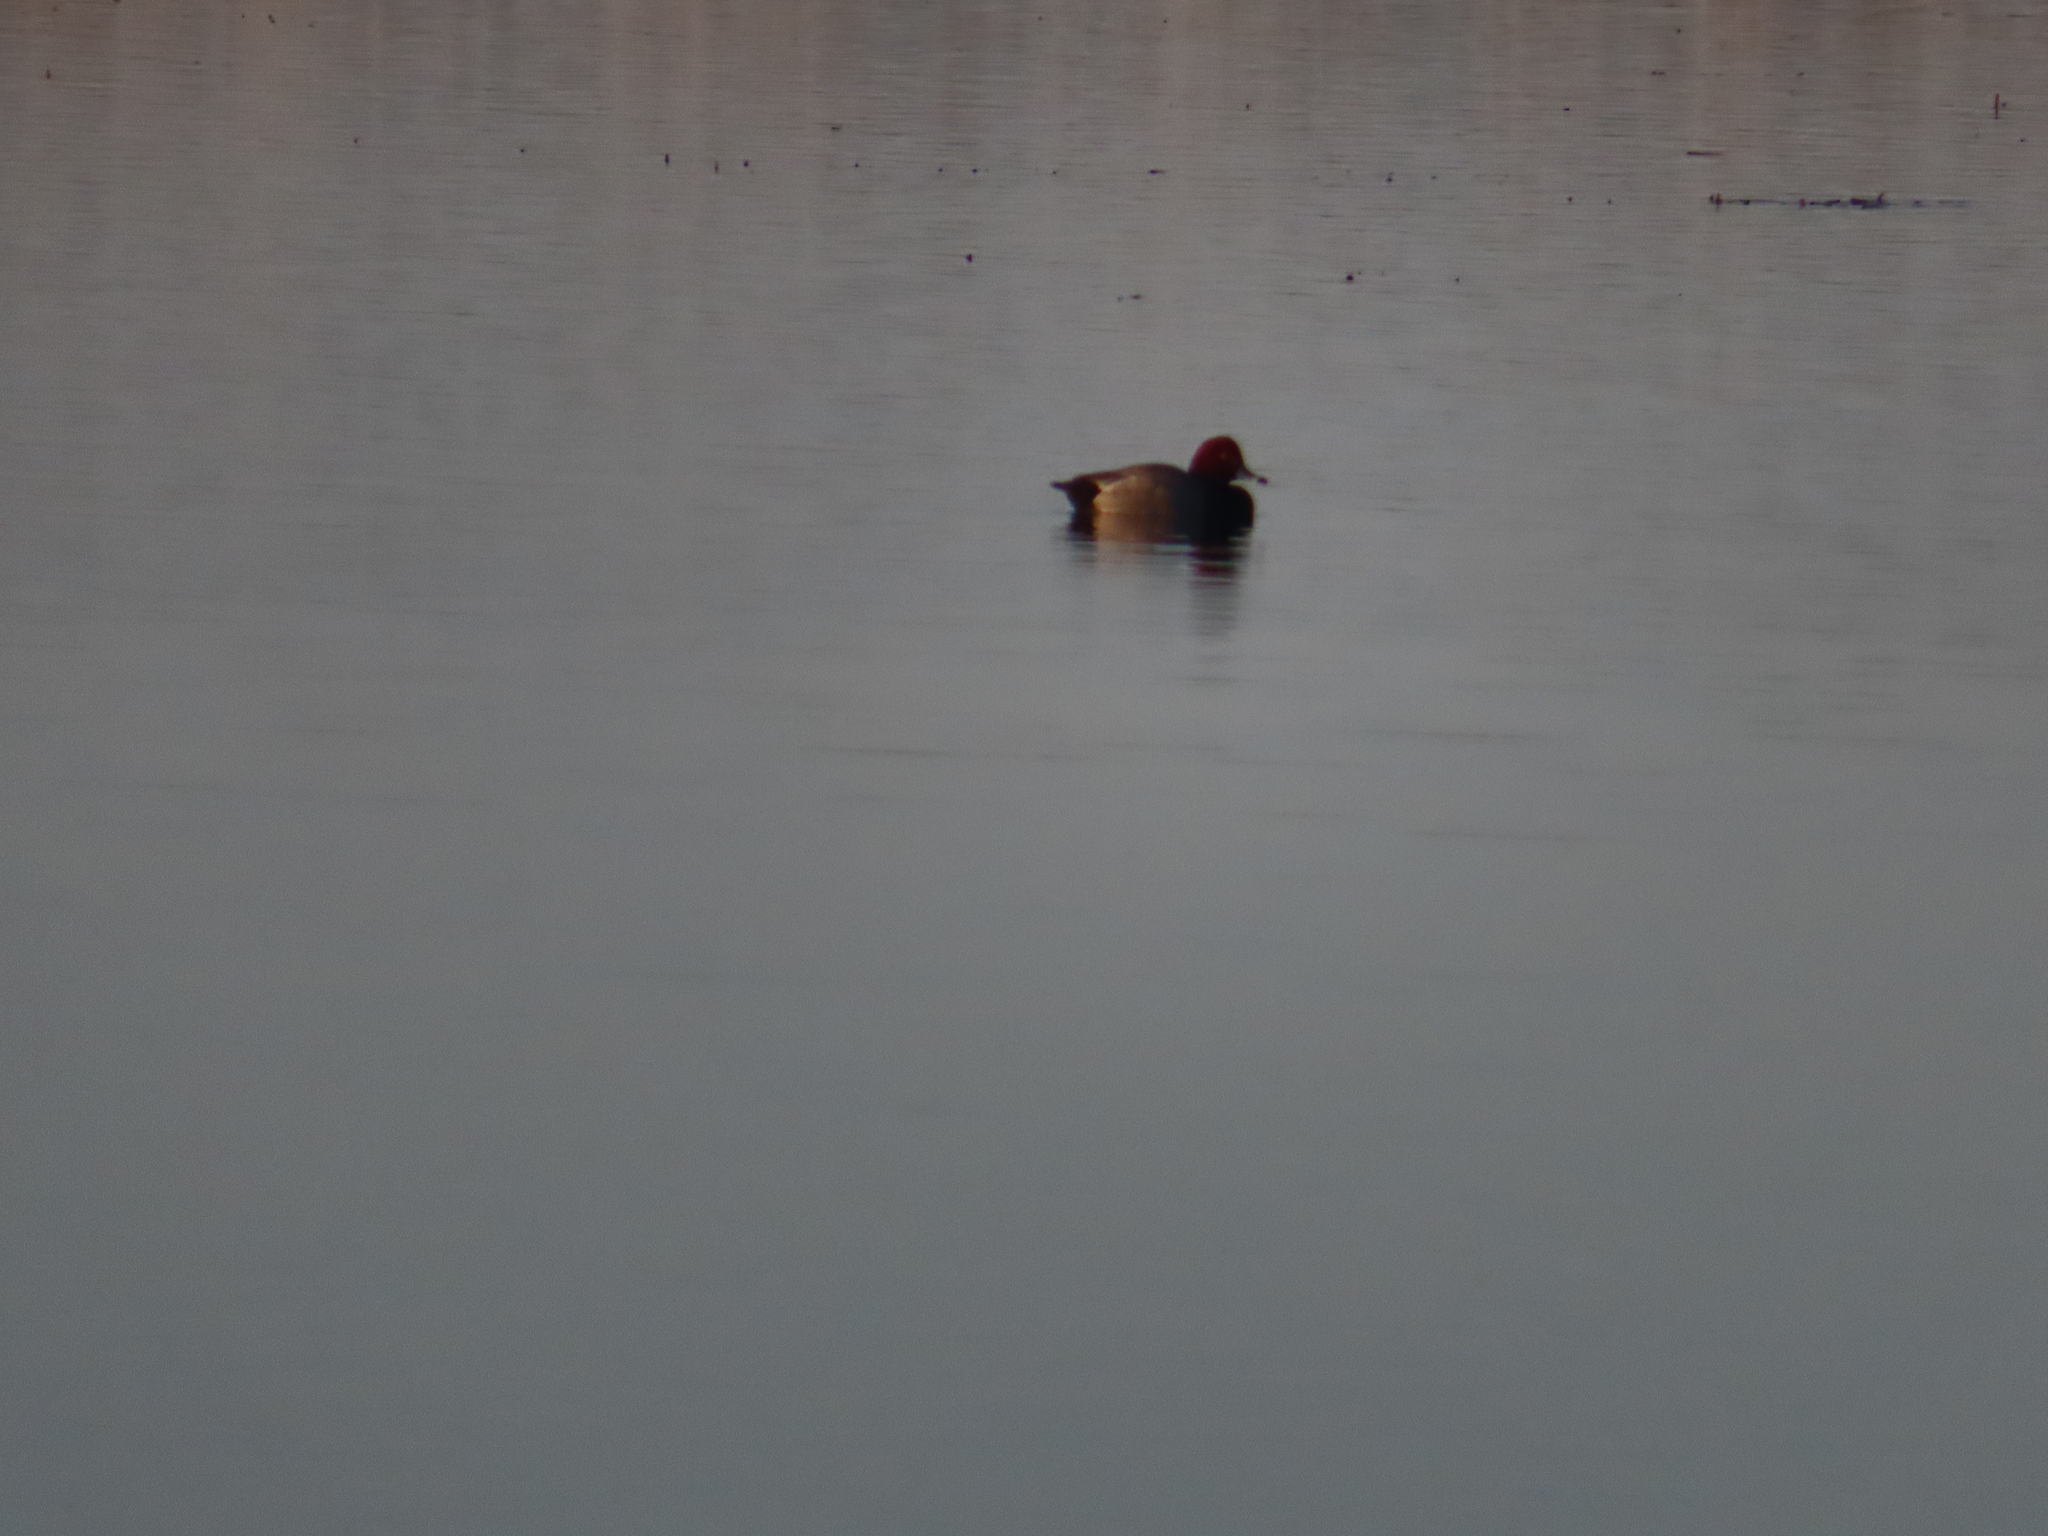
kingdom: Animalia
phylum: Chordata
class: Aves
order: Anseriformes
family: Anatidae
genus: Aythya
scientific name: Aythya americana
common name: Redhead
